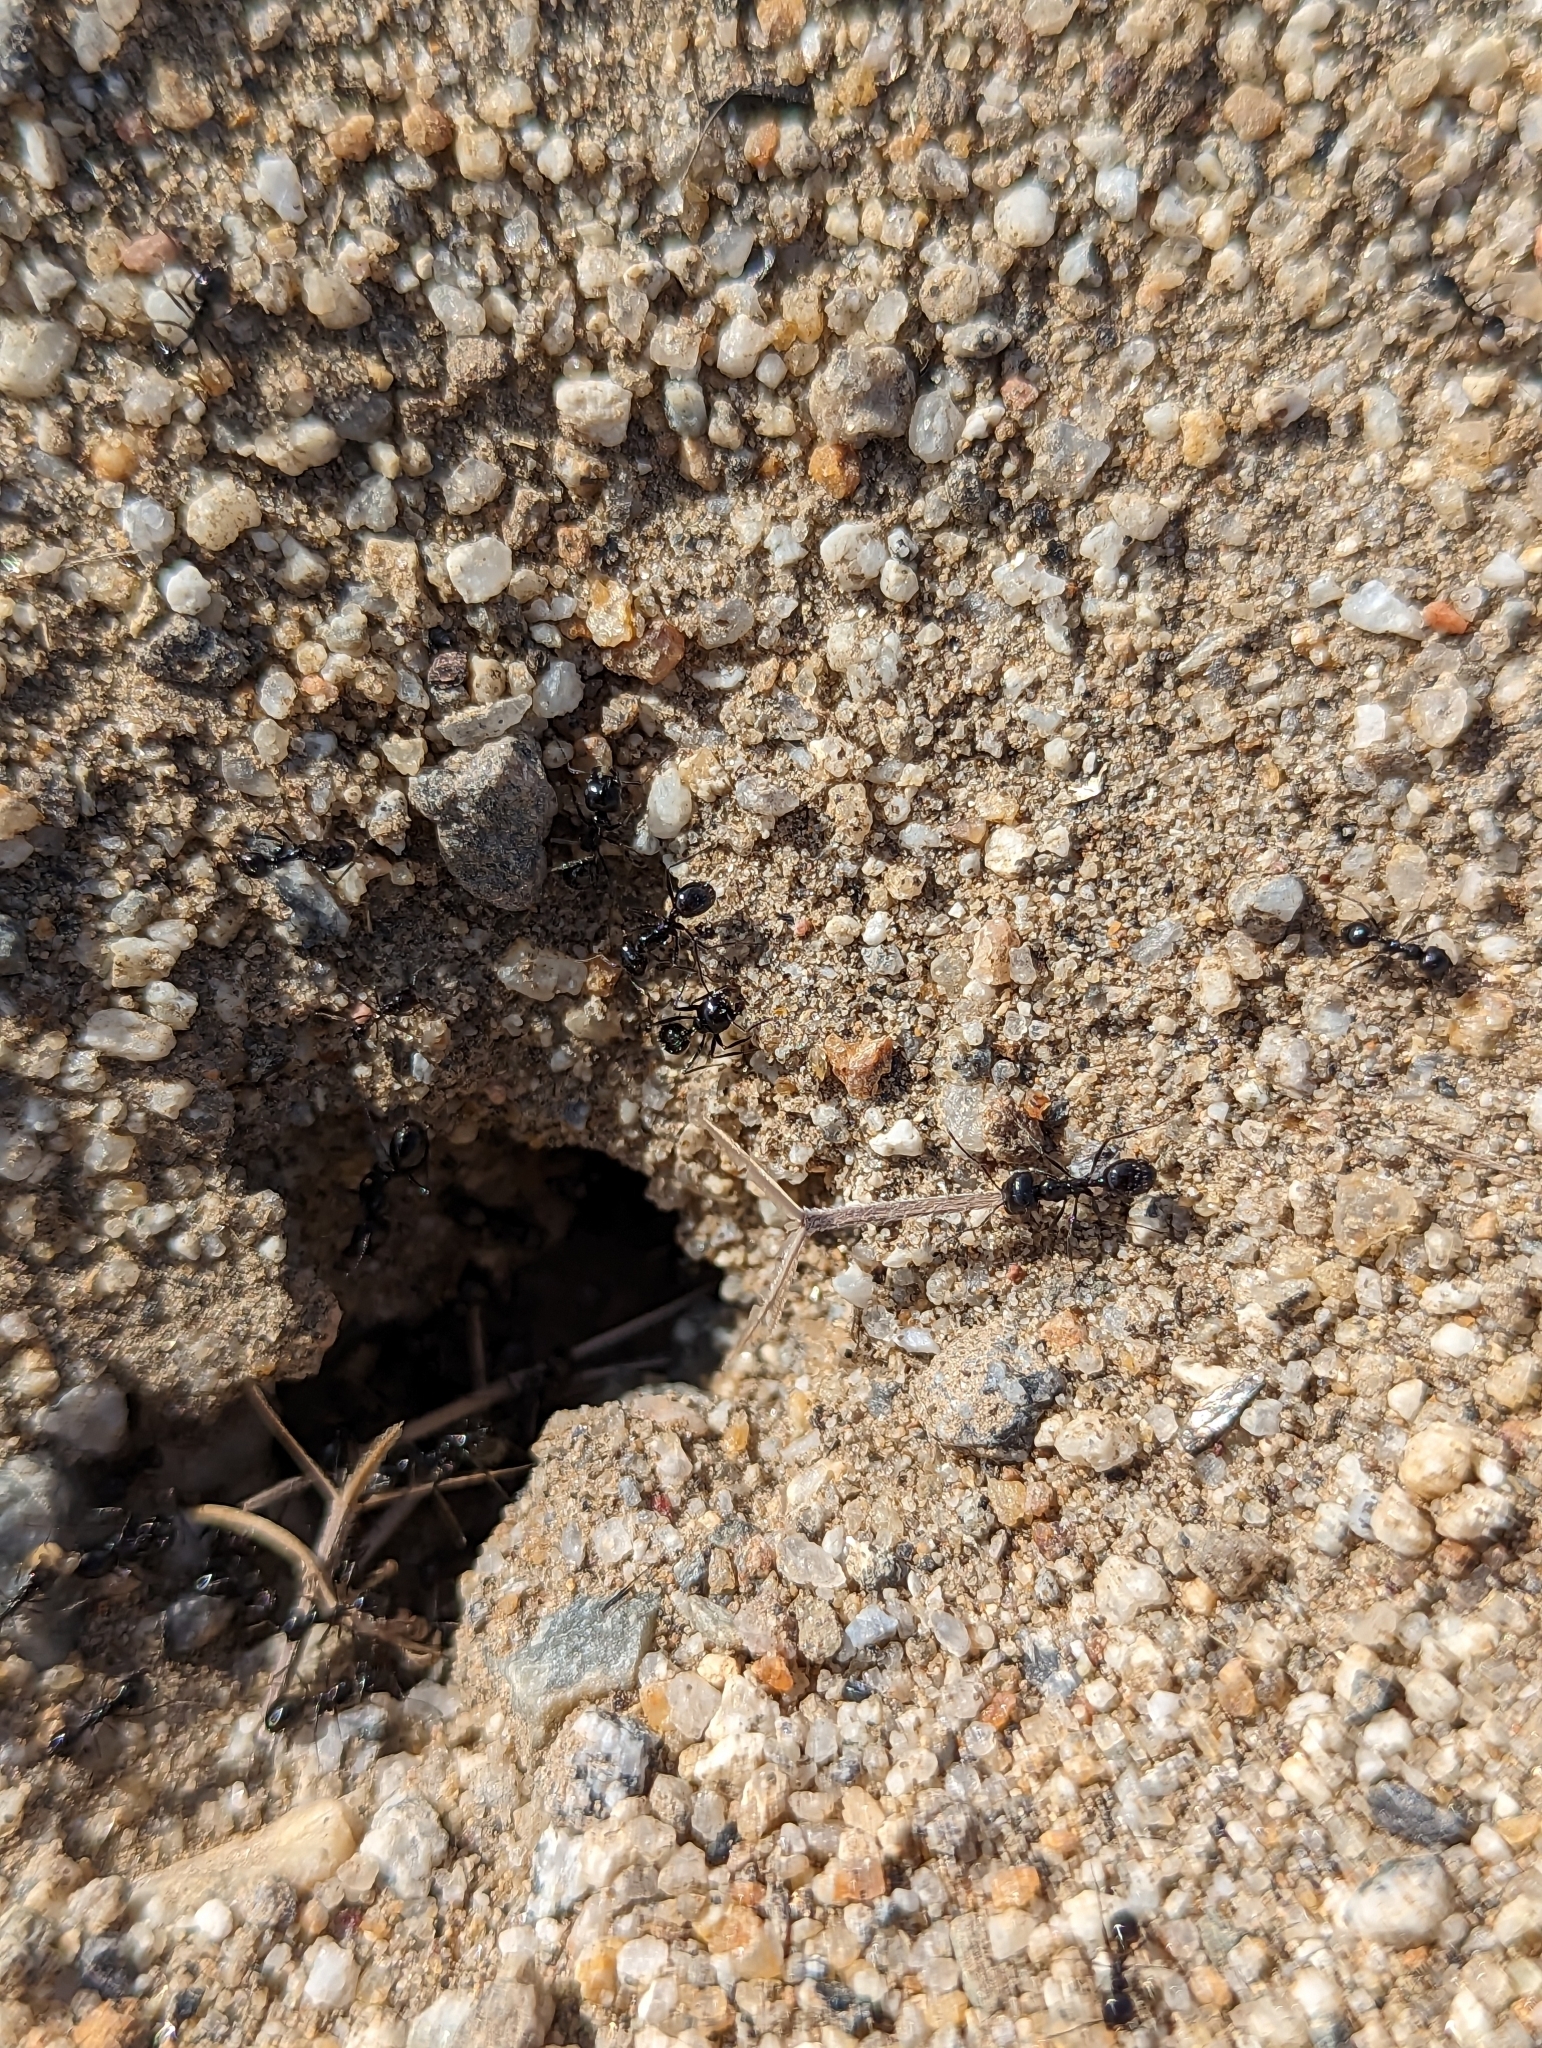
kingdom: Animalia
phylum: Arthropoda
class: Insecta
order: Hymenoptera
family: Formicidae
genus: Messor
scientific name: Messor pergandei
